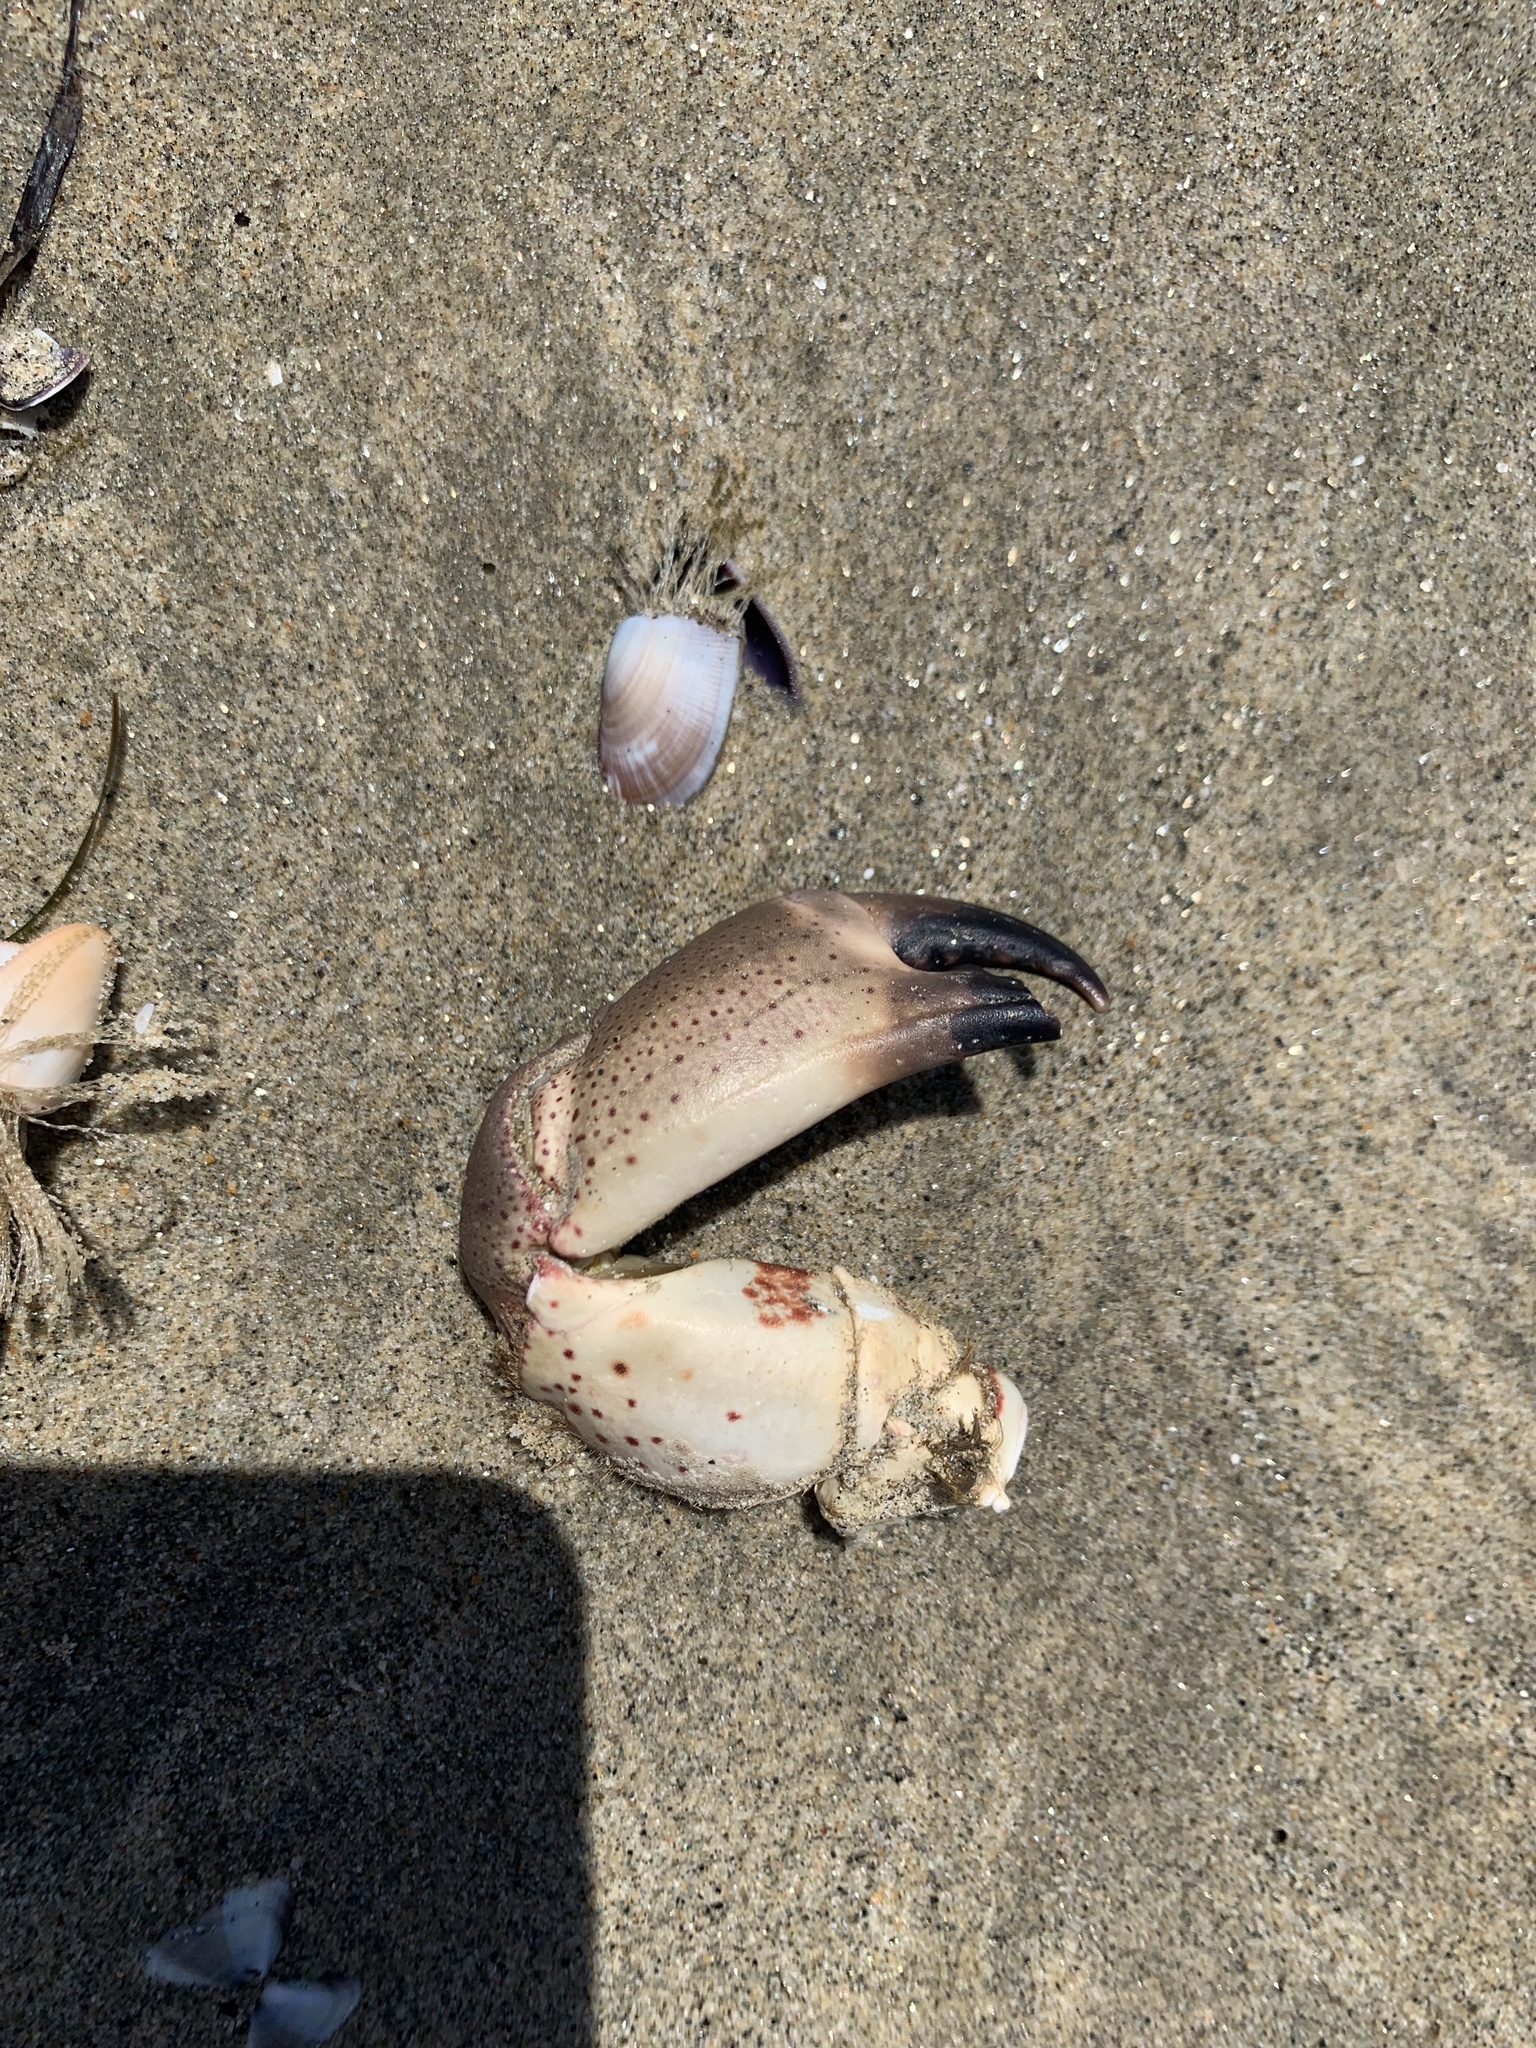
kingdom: Animalia
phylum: Arthropoda
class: Malacostraca
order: Decapoda
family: Cancridae
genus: Romaleon
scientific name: Romaleon antennarium
